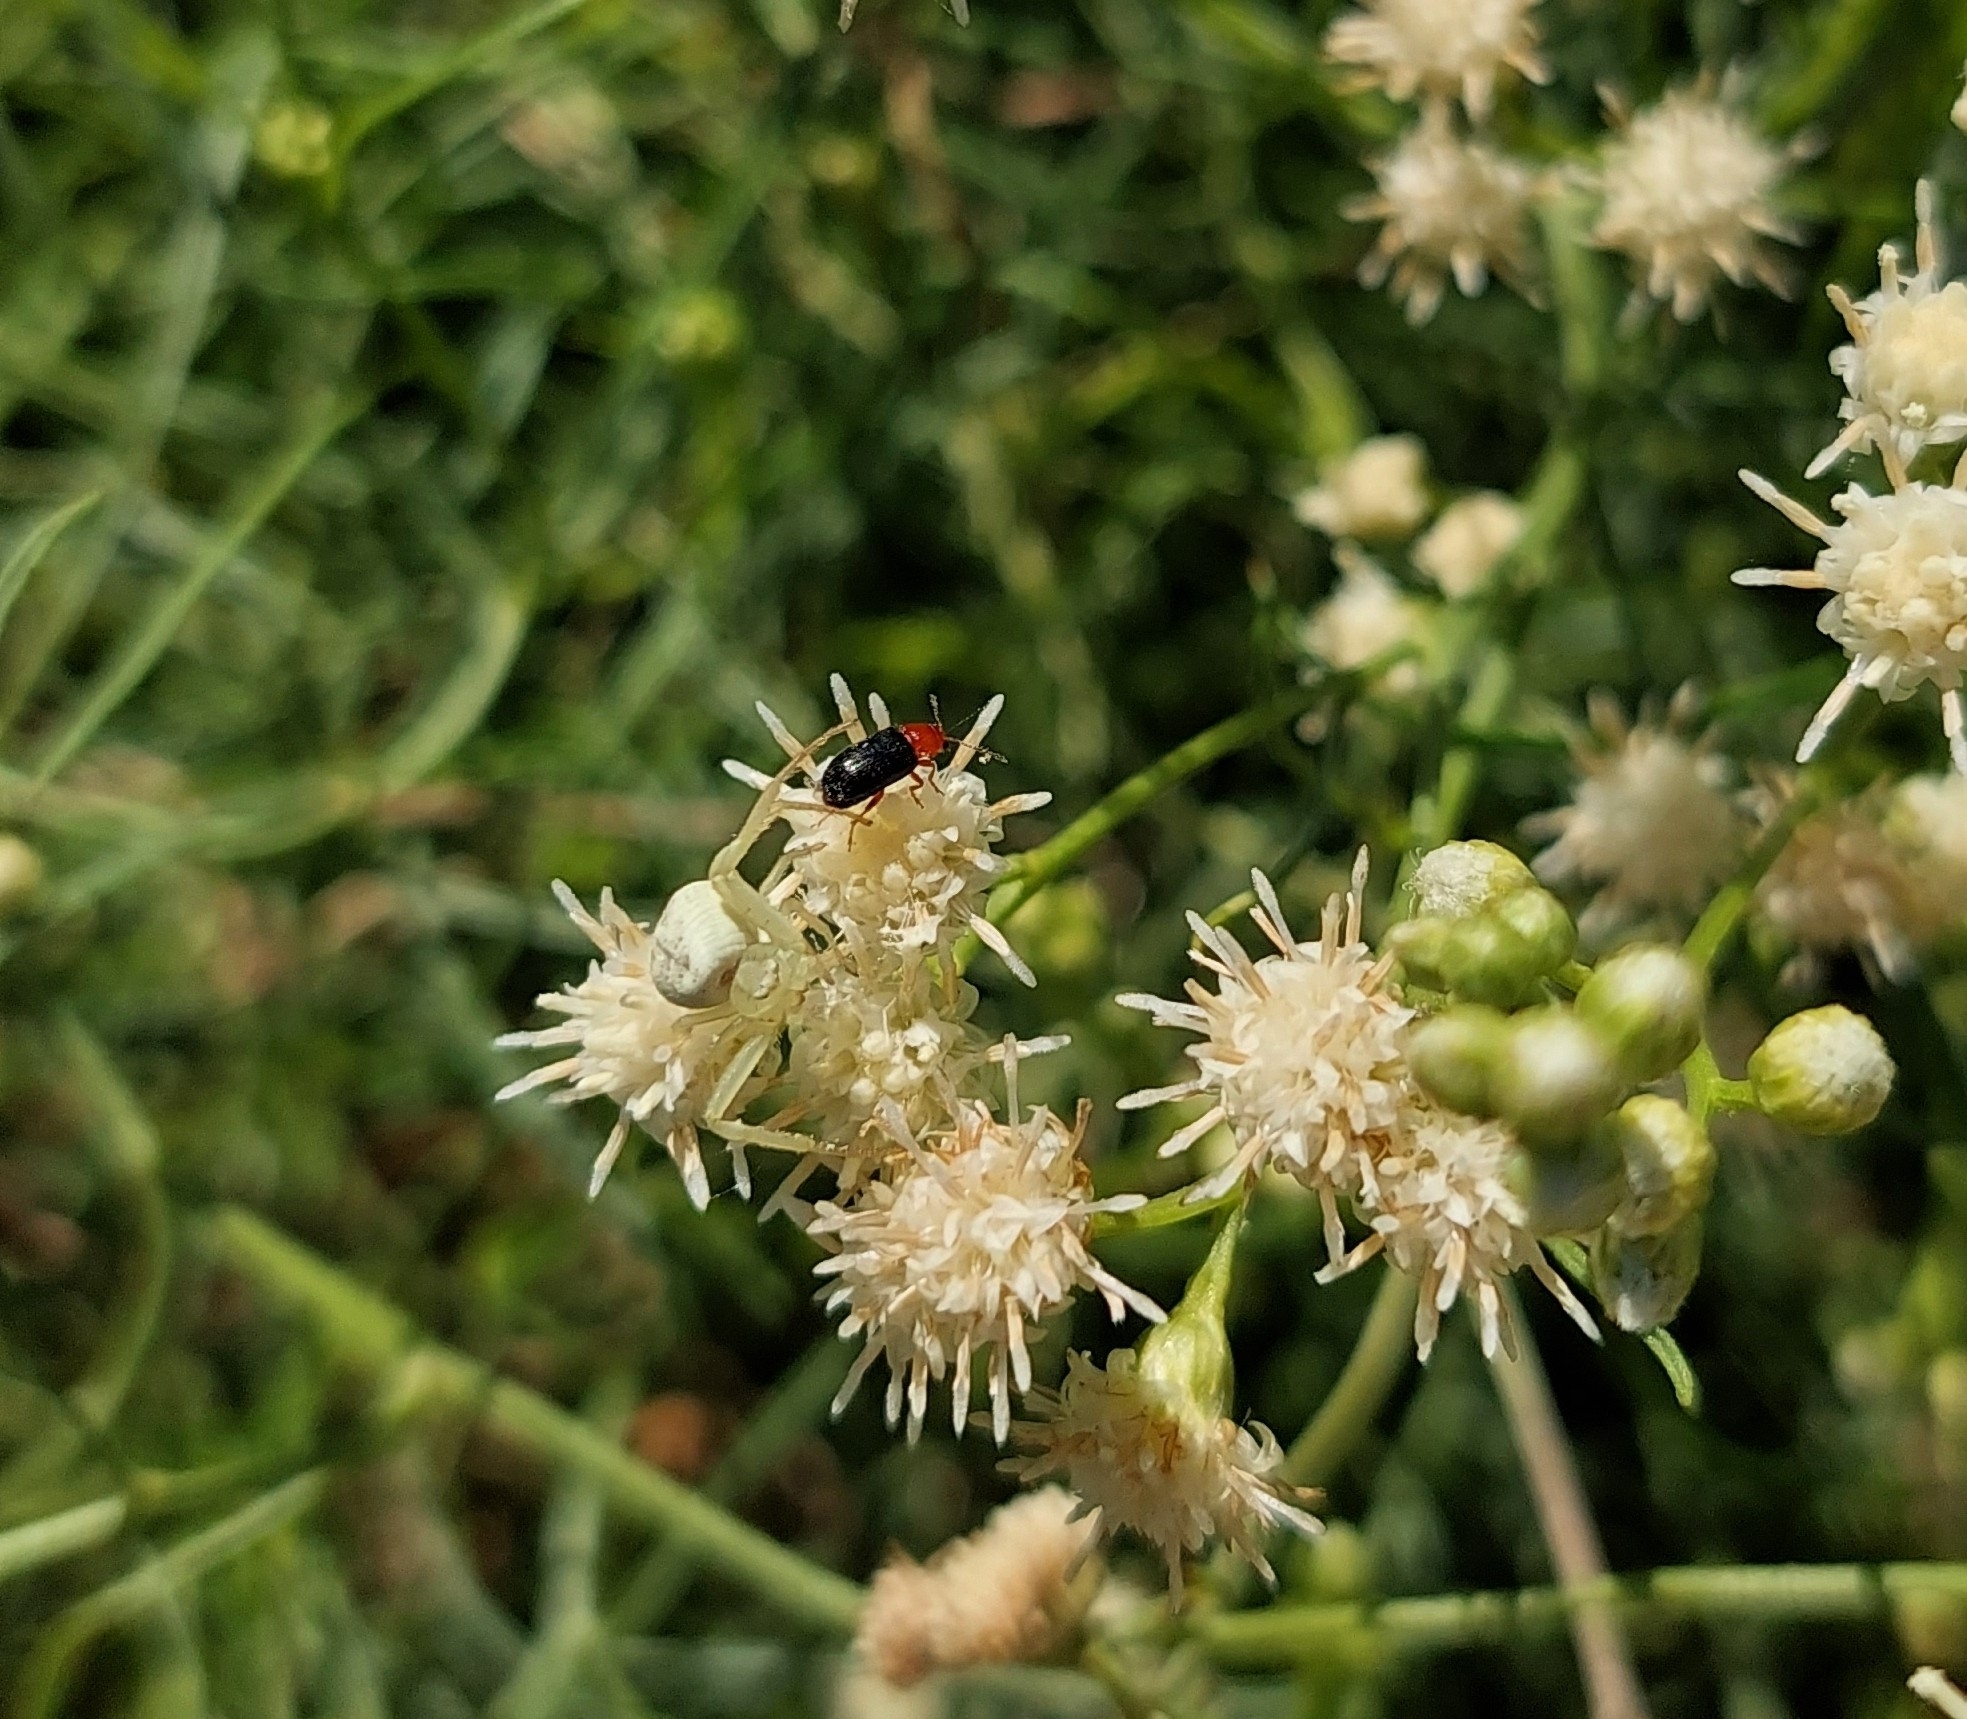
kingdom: Animalia
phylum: Arthropoda
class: Arachnida
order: Araneae
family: Thomisidae
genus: Misumenops
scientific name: Misumenops
